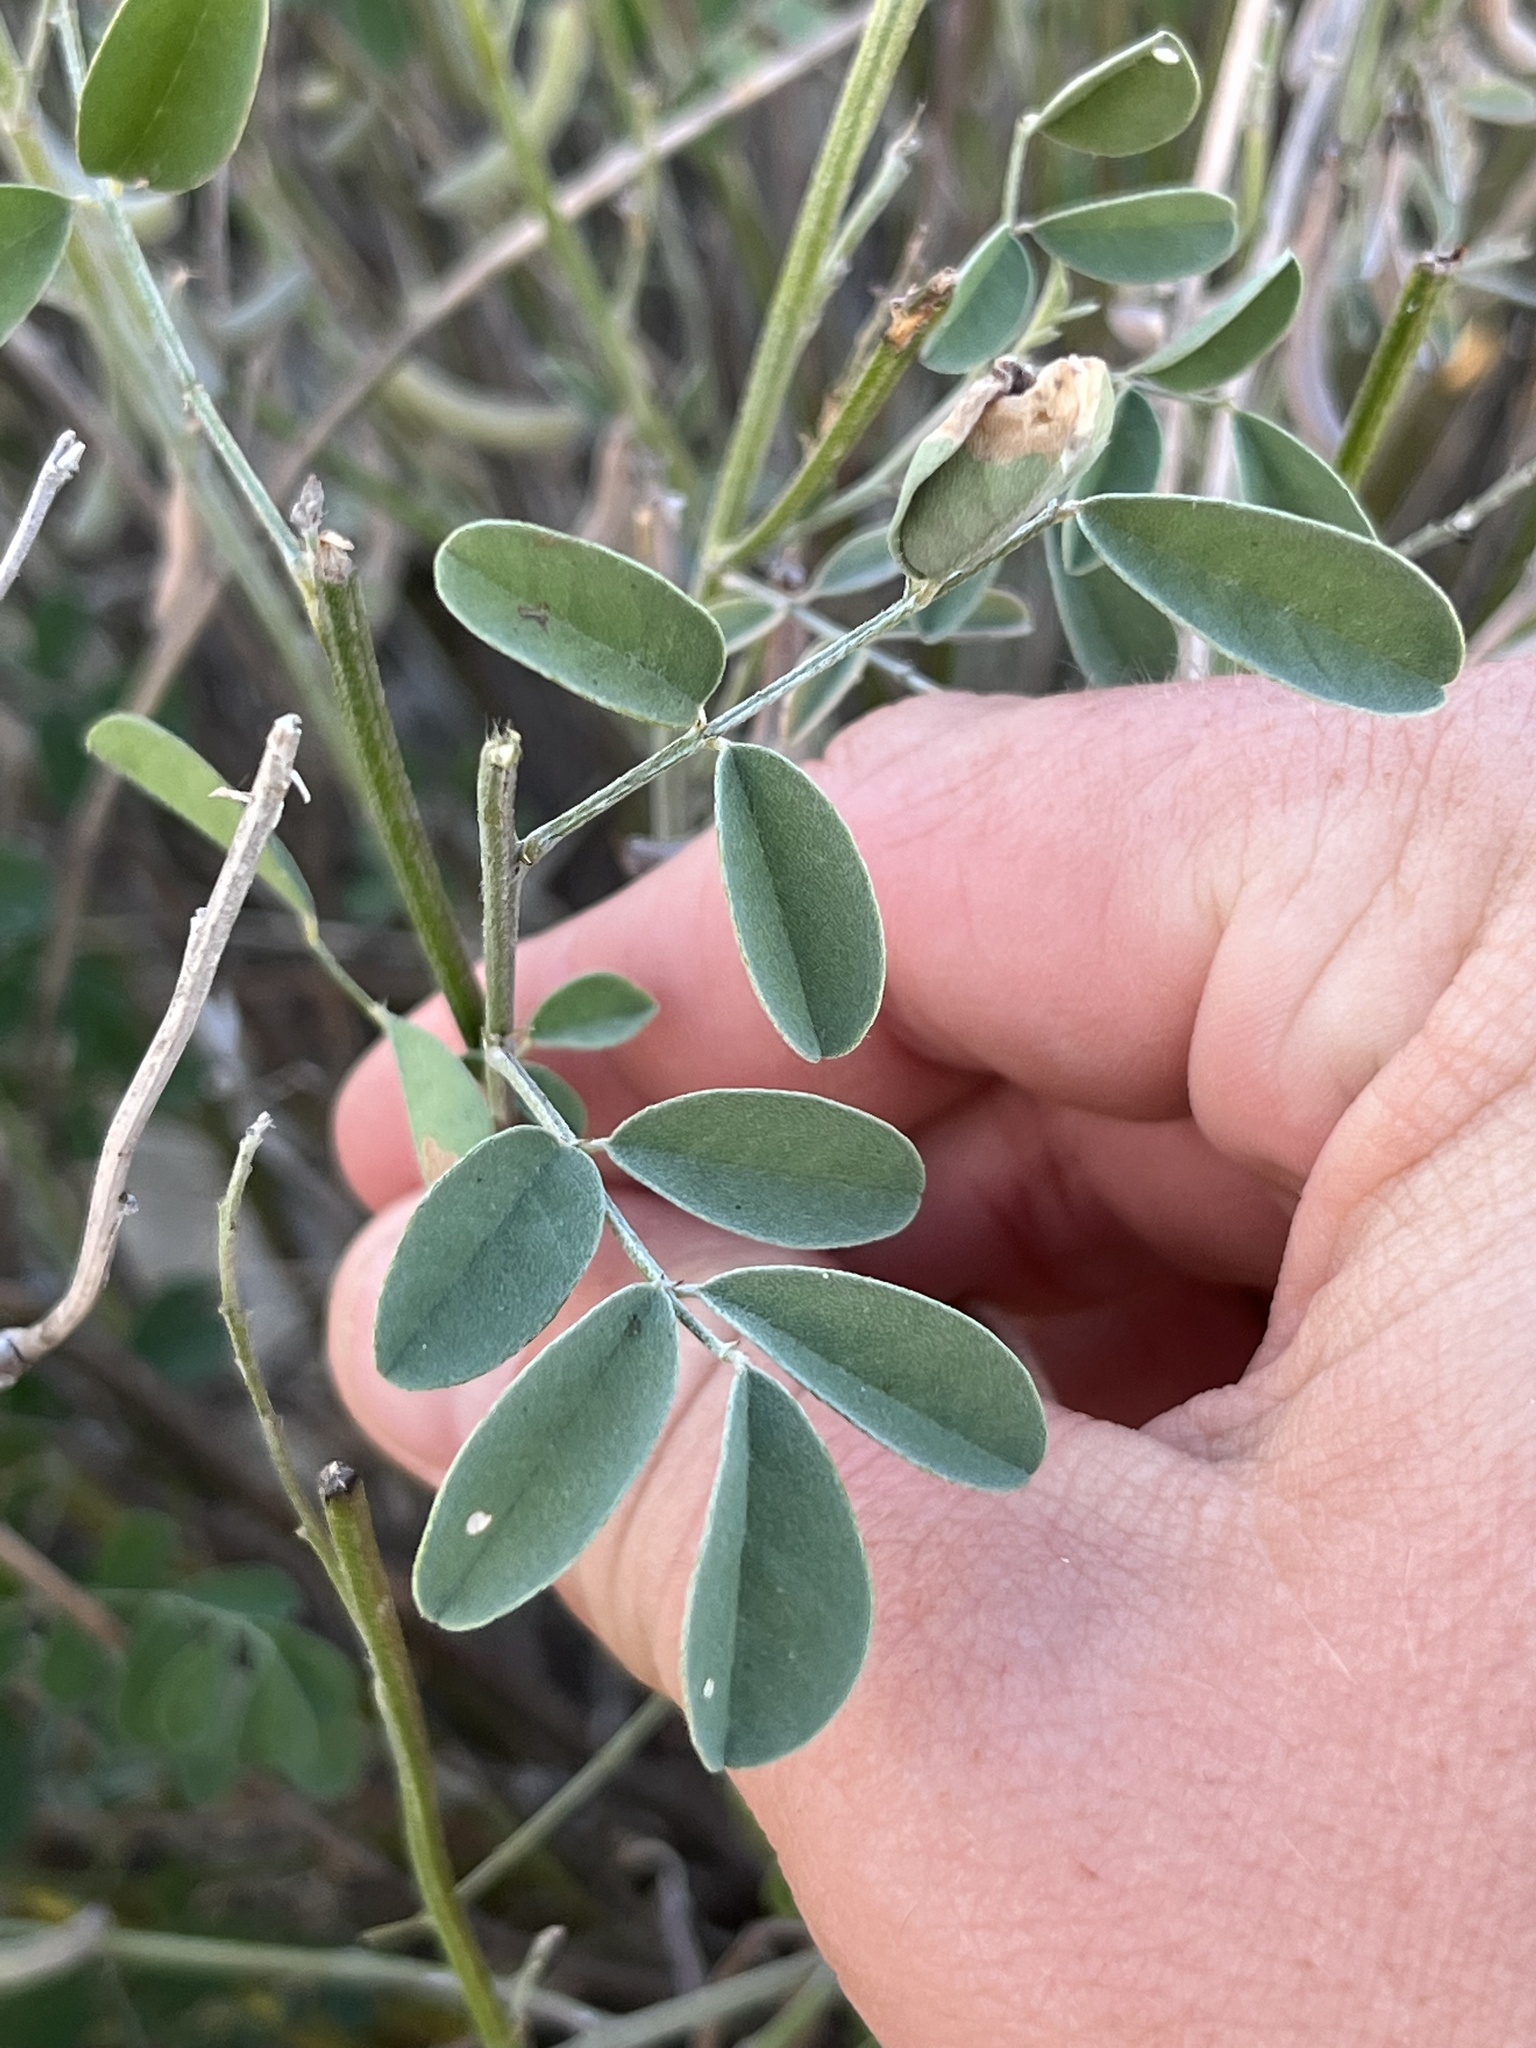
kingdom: Plantae
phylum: Tracheophyta
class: Magnoliopsida
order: Fabales
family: Fabaceae
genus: Indigofera
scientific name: Indigofera lindheimeriana
